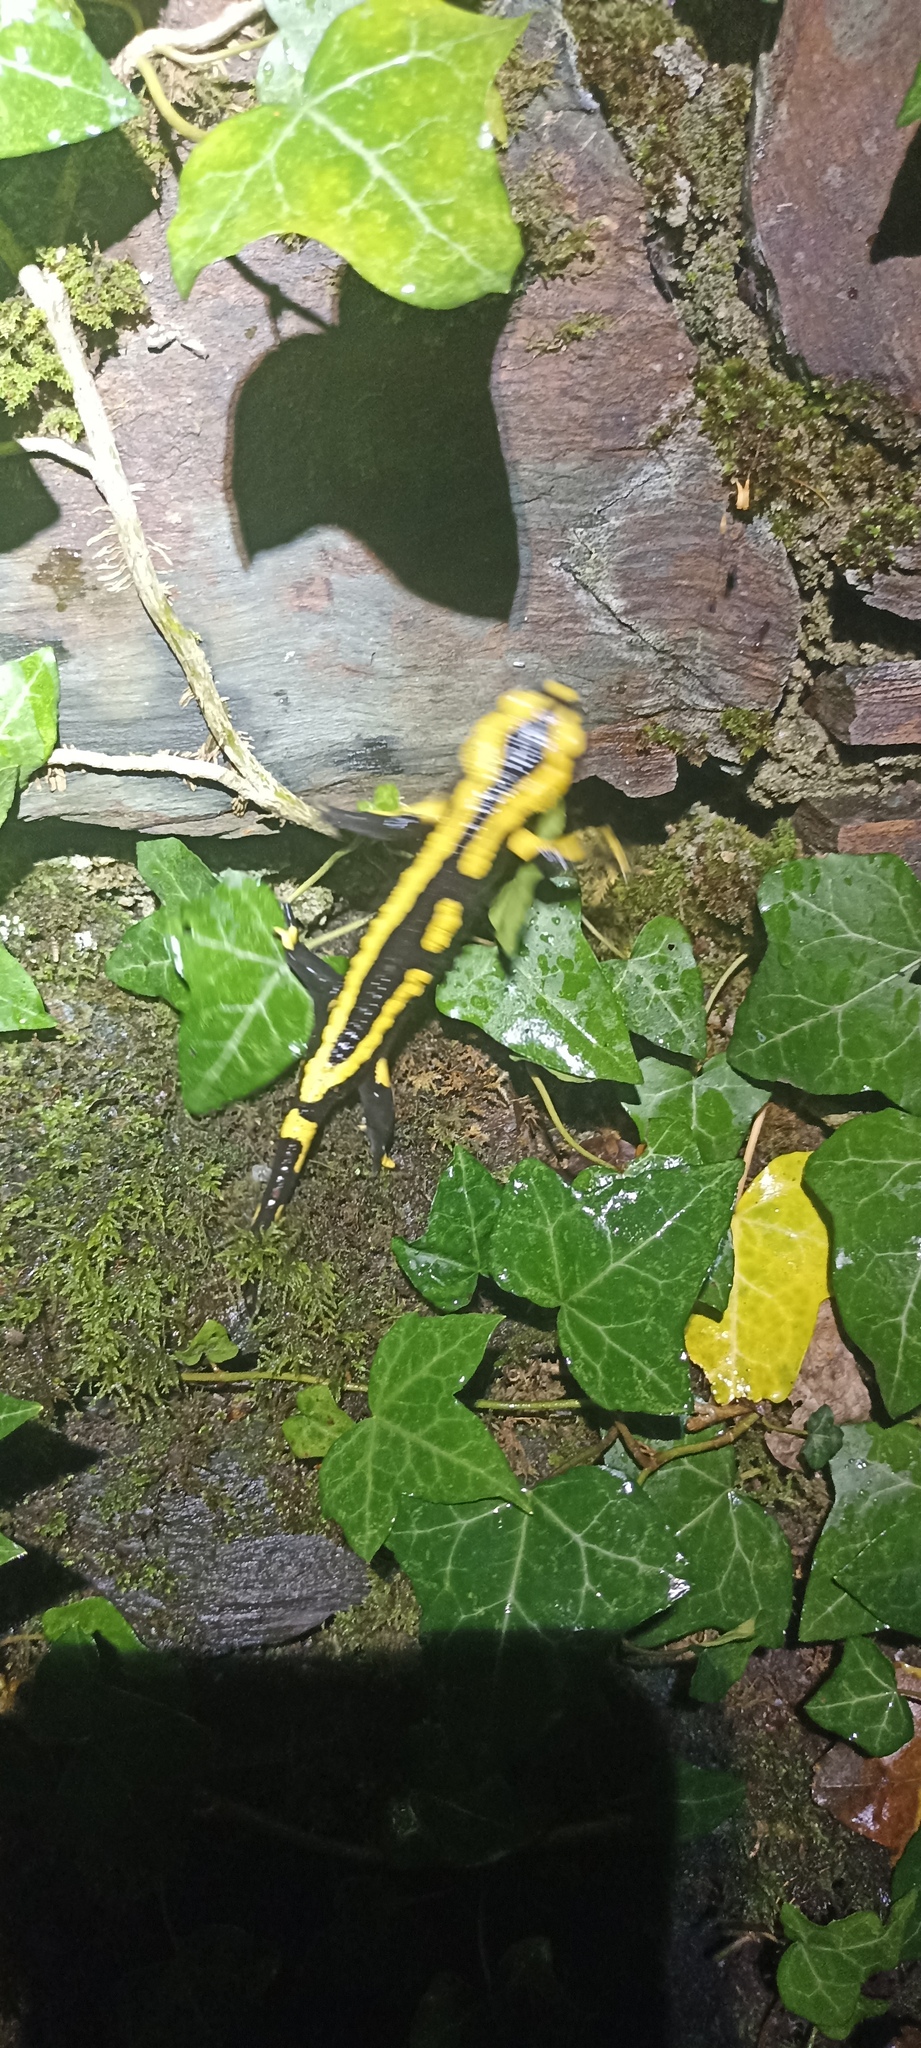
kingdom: Animalia
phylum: Chordata
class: Amphibia
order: Caudata
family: Salamandridae
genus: Salamandra
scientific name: Salamandra salamandra
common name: Fire salamander
